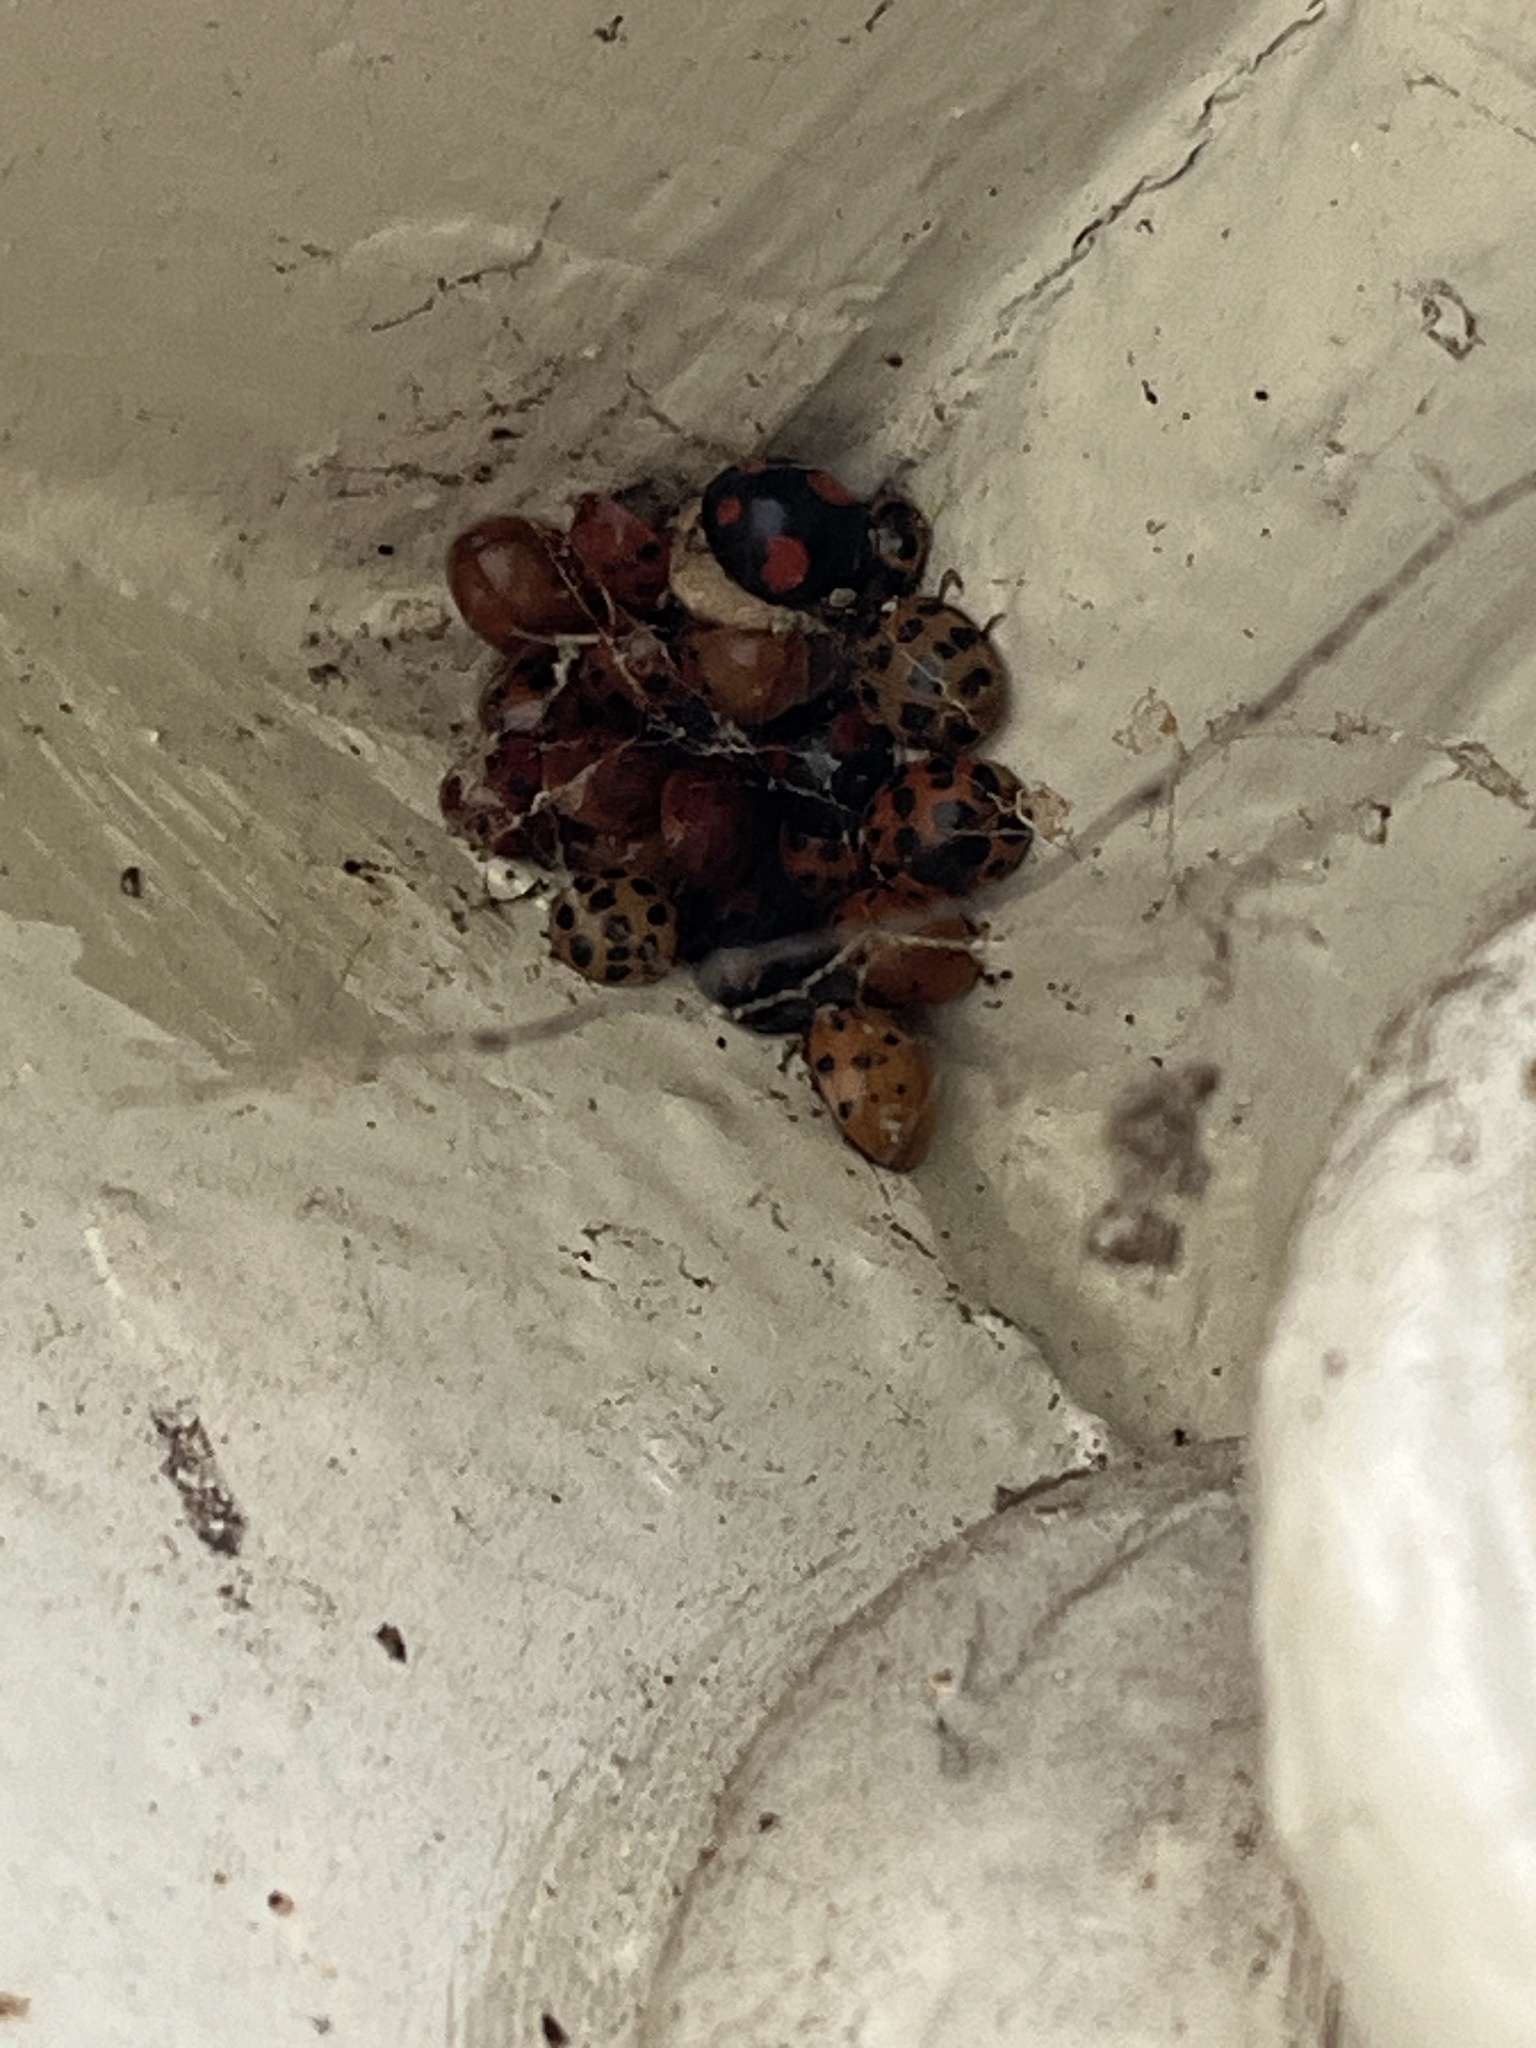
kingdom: Animalia
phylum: Arthropoda
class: Insecta
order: Coleoptera
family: Coccinellidae
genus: Harmonia
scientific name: Harmonia axyridis
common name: Harlequin ladybird
